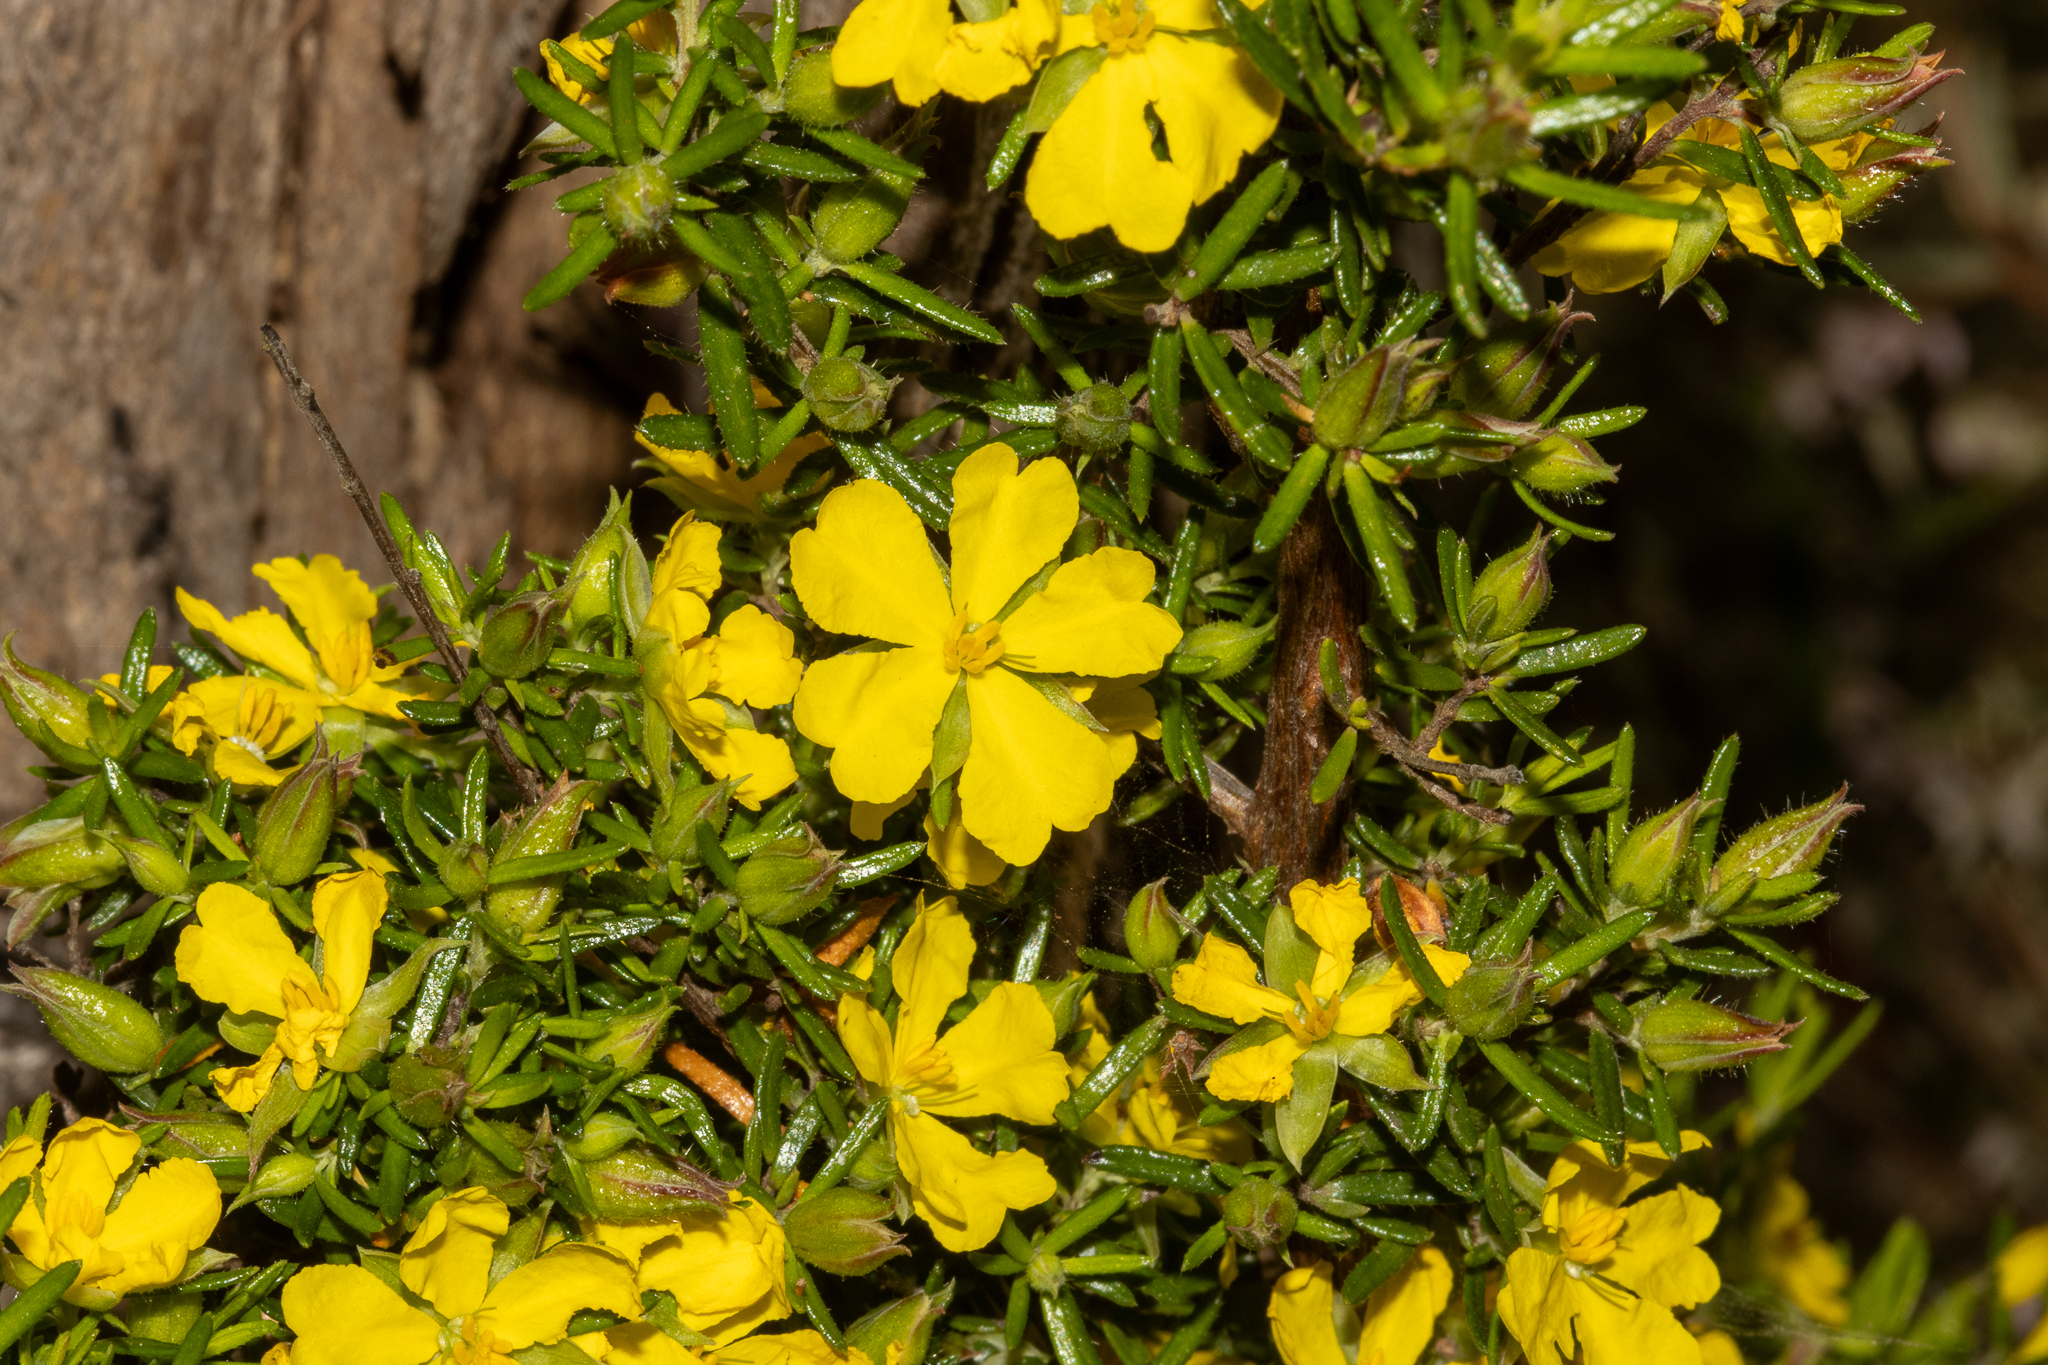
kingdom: Plantae
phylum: Tracheophyta
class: Magnoliopsida
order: Dilleniales
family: Dilleniaceae
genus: Hibbertia
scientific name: Hibbertia riparia
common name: Erect guinea-flower
